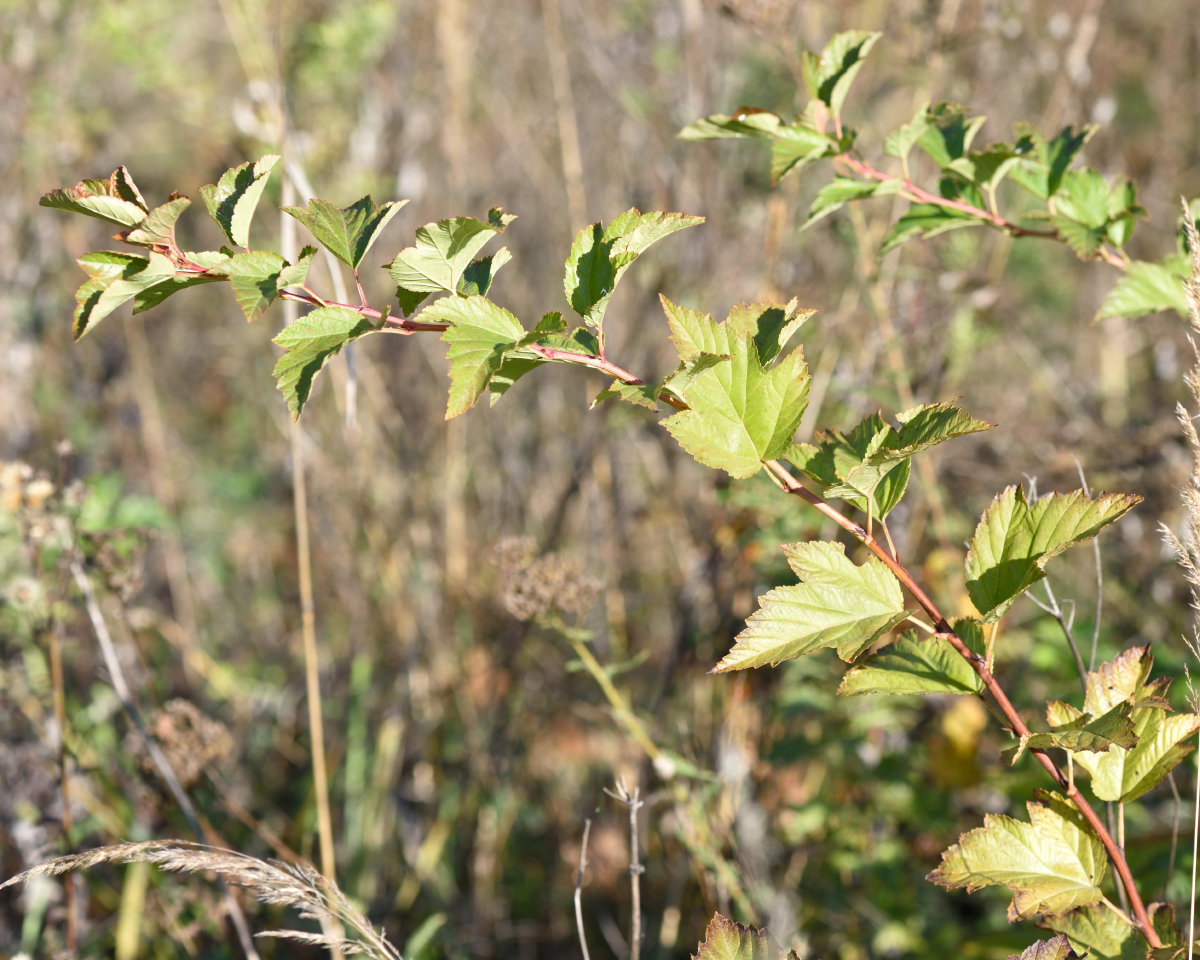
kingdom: Plantae
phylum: Tracheophyta
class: Magnoliopsida
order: Rosales
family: Rosaceae
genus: Physocarpus
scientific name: Physocarpus opulifolius
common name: Ninebark
